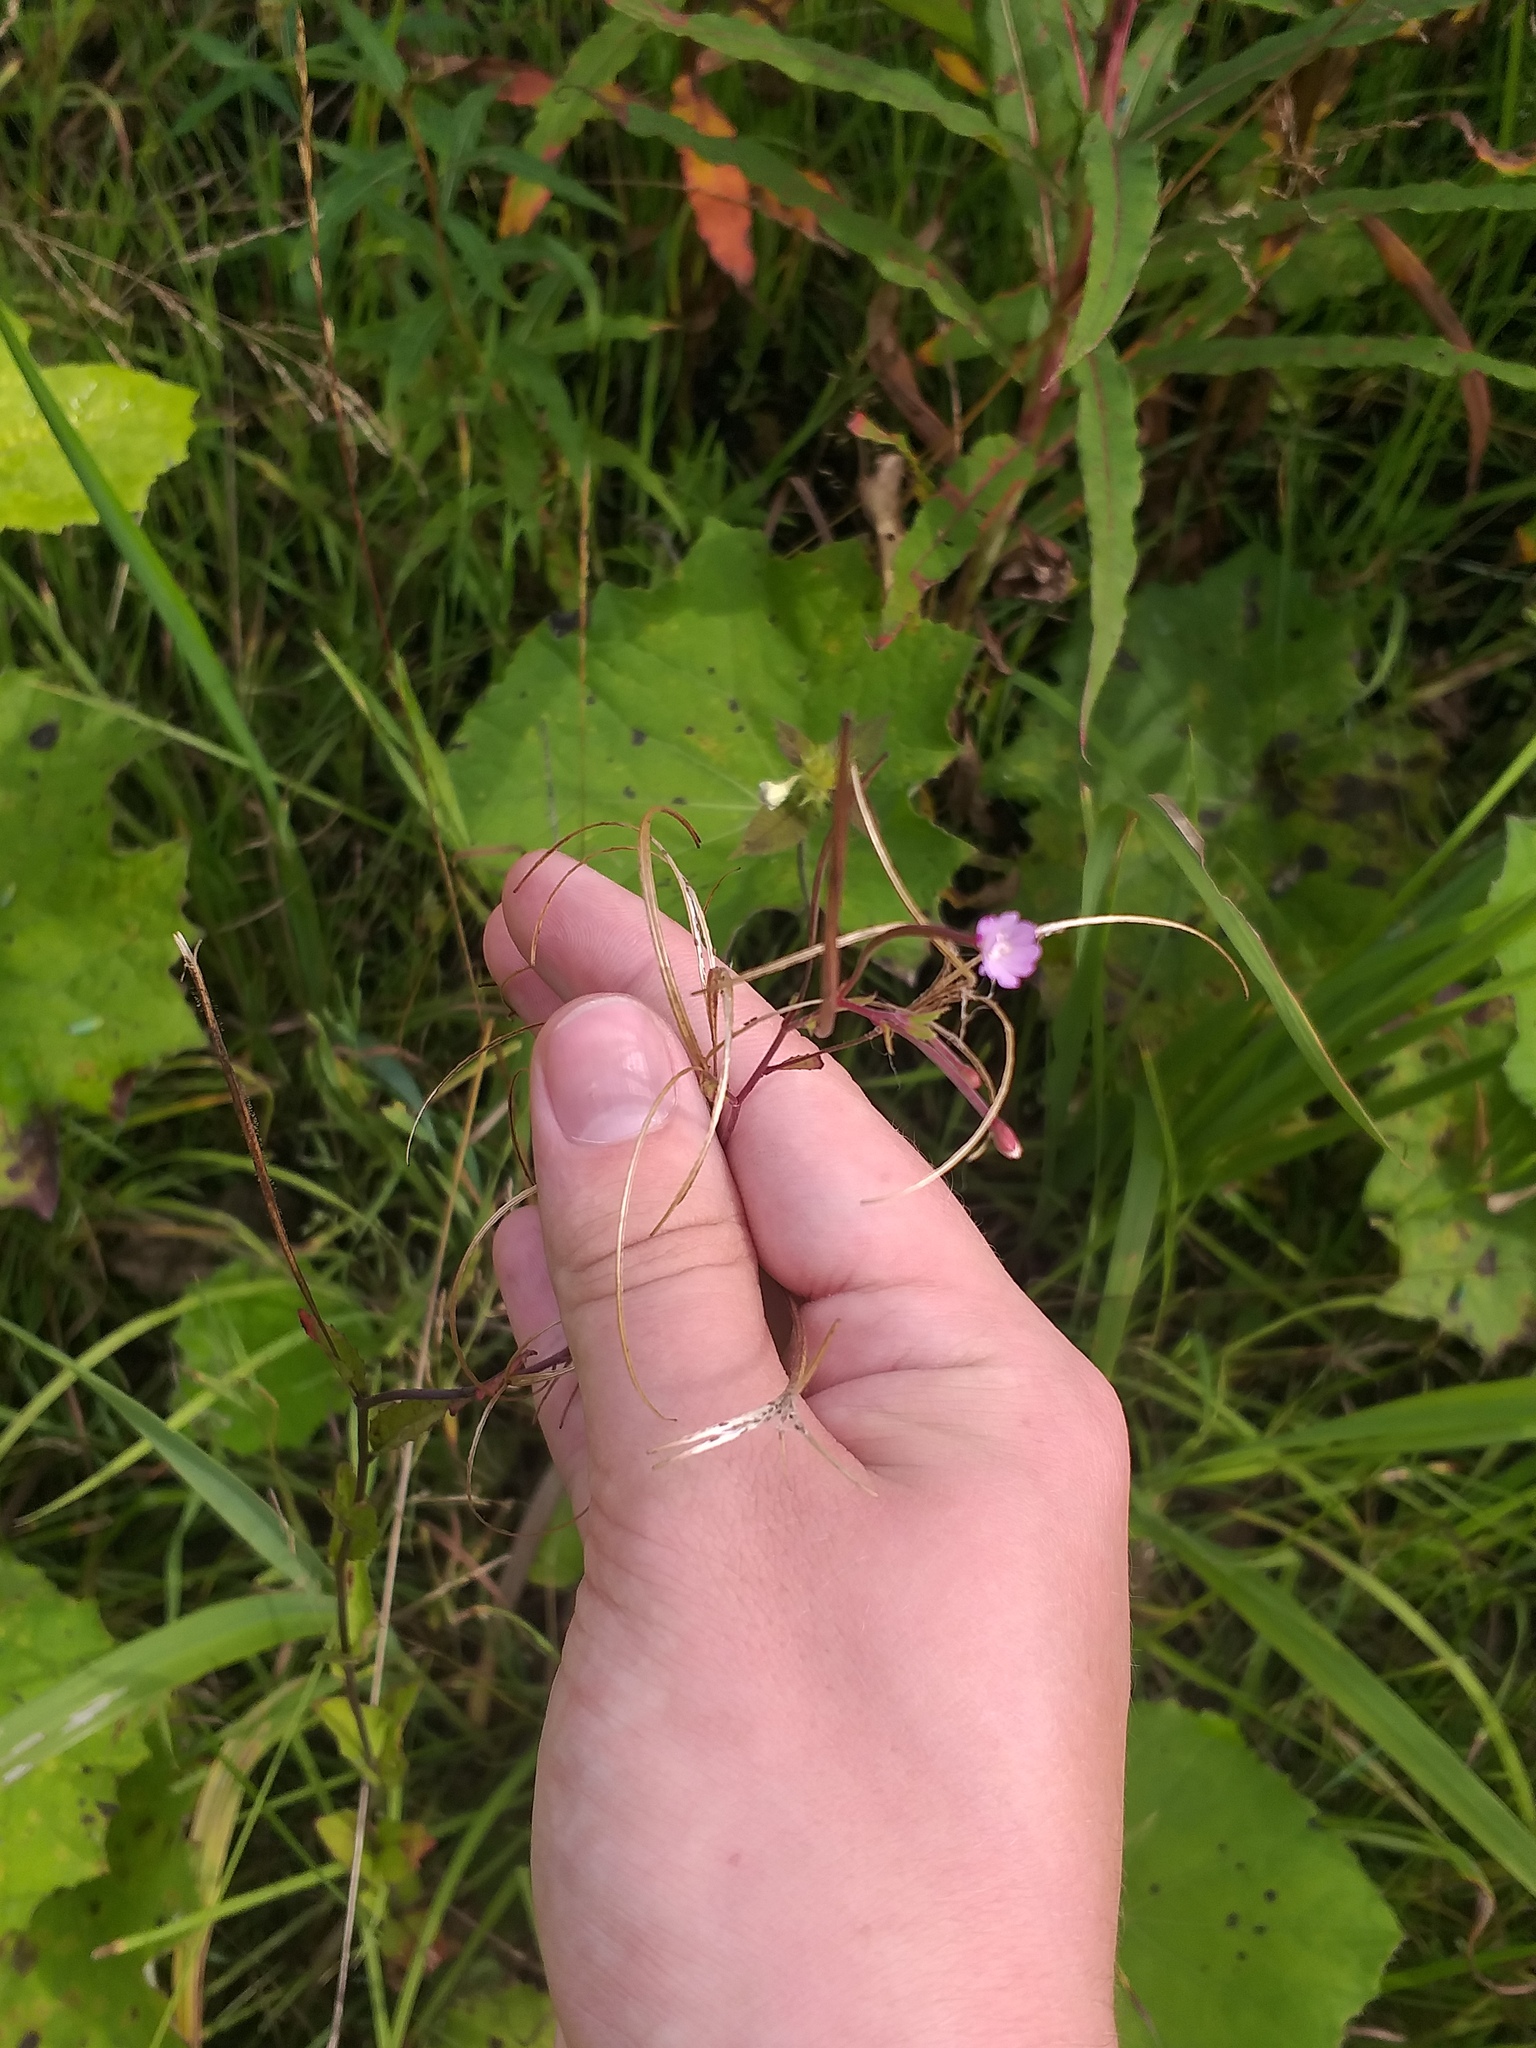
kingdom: Plantae
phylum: Tracheophyta
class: Magnoliopsida
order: Myrtales
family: Onagraceae
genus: Epilobium
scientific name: Epilobium montanum
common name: Broad-leaved willowherb
